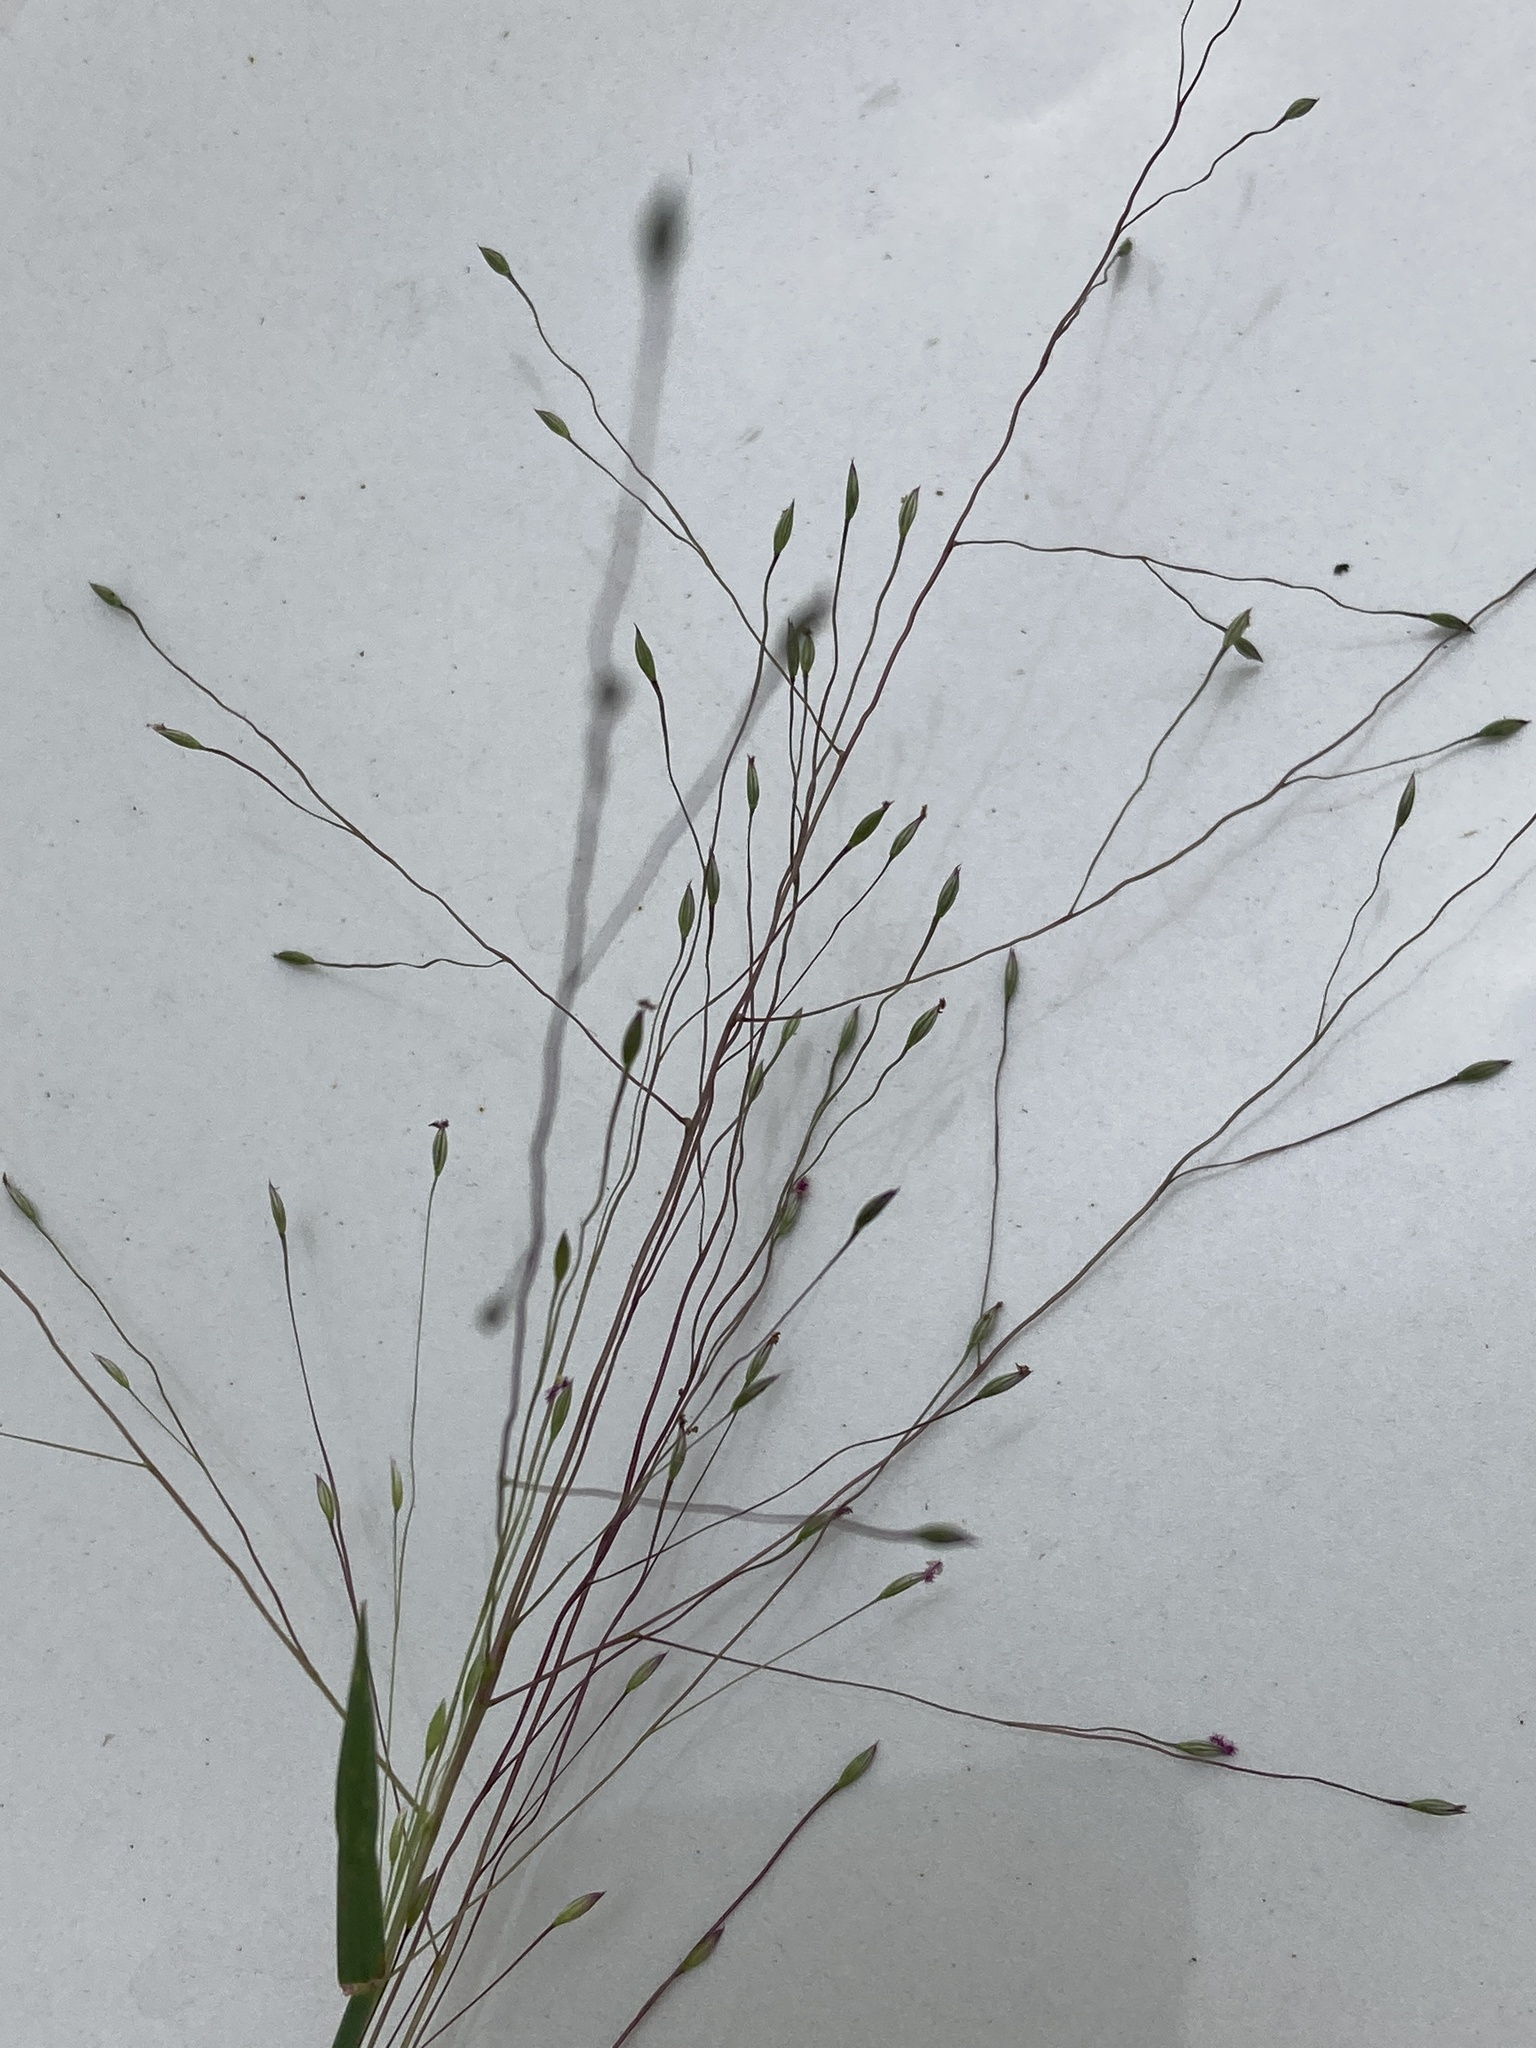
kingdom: Plantae
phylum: Tracheophyta
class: Liliopsida
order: Poales
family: Poaceae
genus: Digitaria
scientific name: Digitaria cognata
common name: Fall witchgrass
